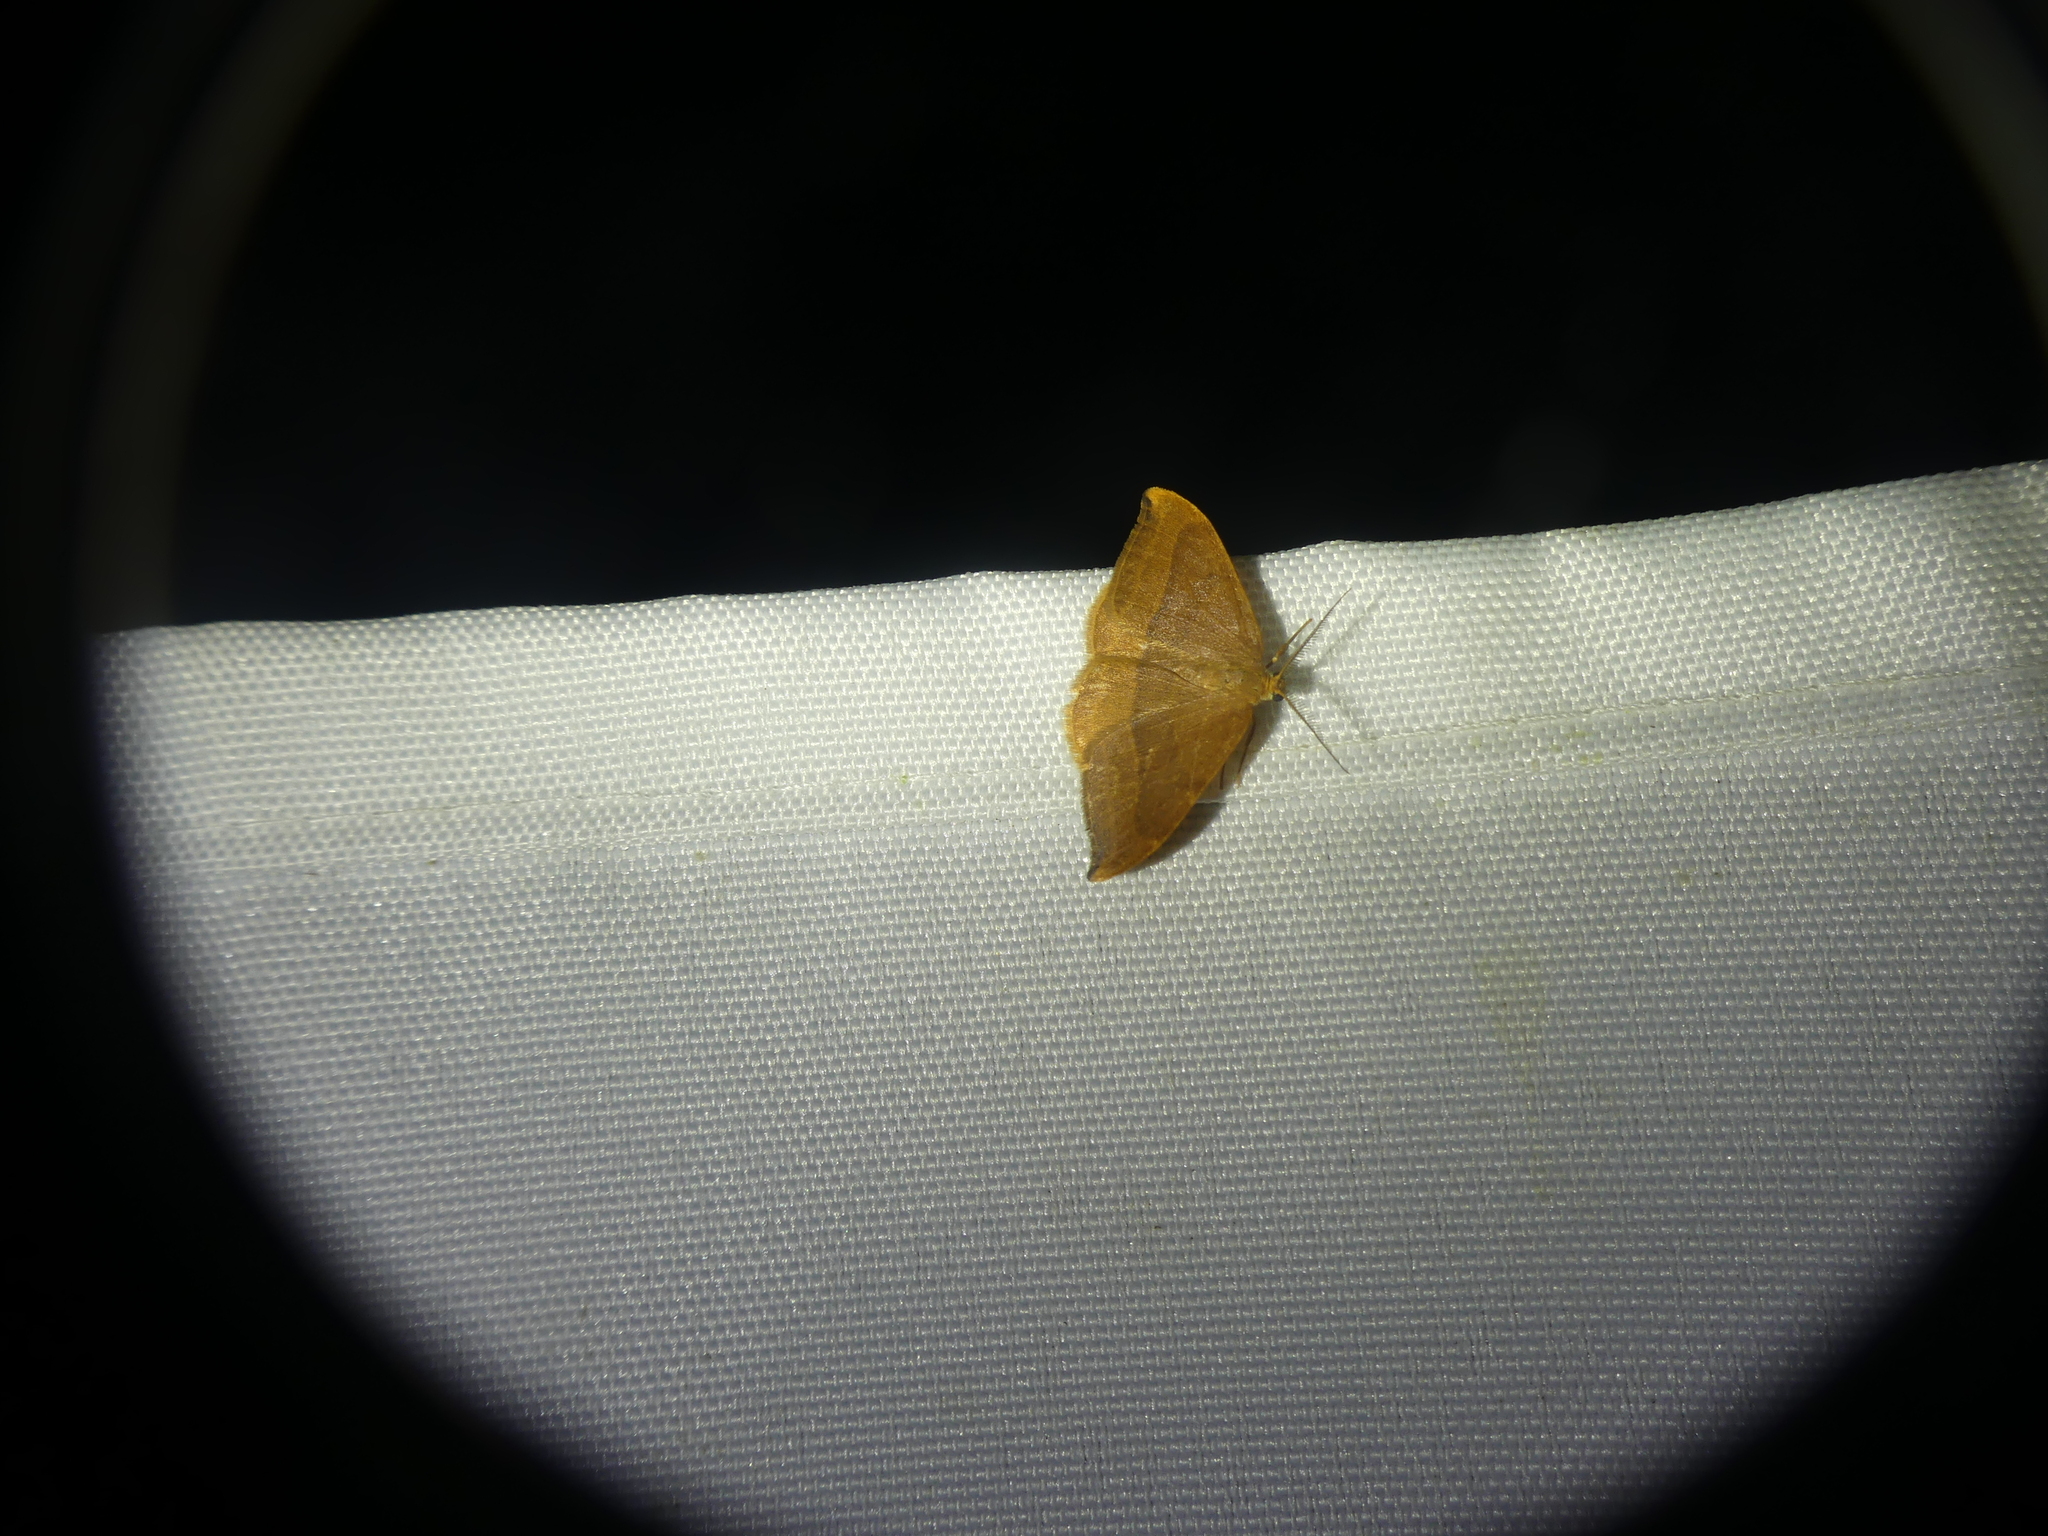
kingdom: Animalia
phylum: Arthropoda
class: Insecta
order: Lepidoptera
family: Drepanidae
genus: Watsonalla
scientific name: Watsonalla cultraria
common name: Barred hook-tip
